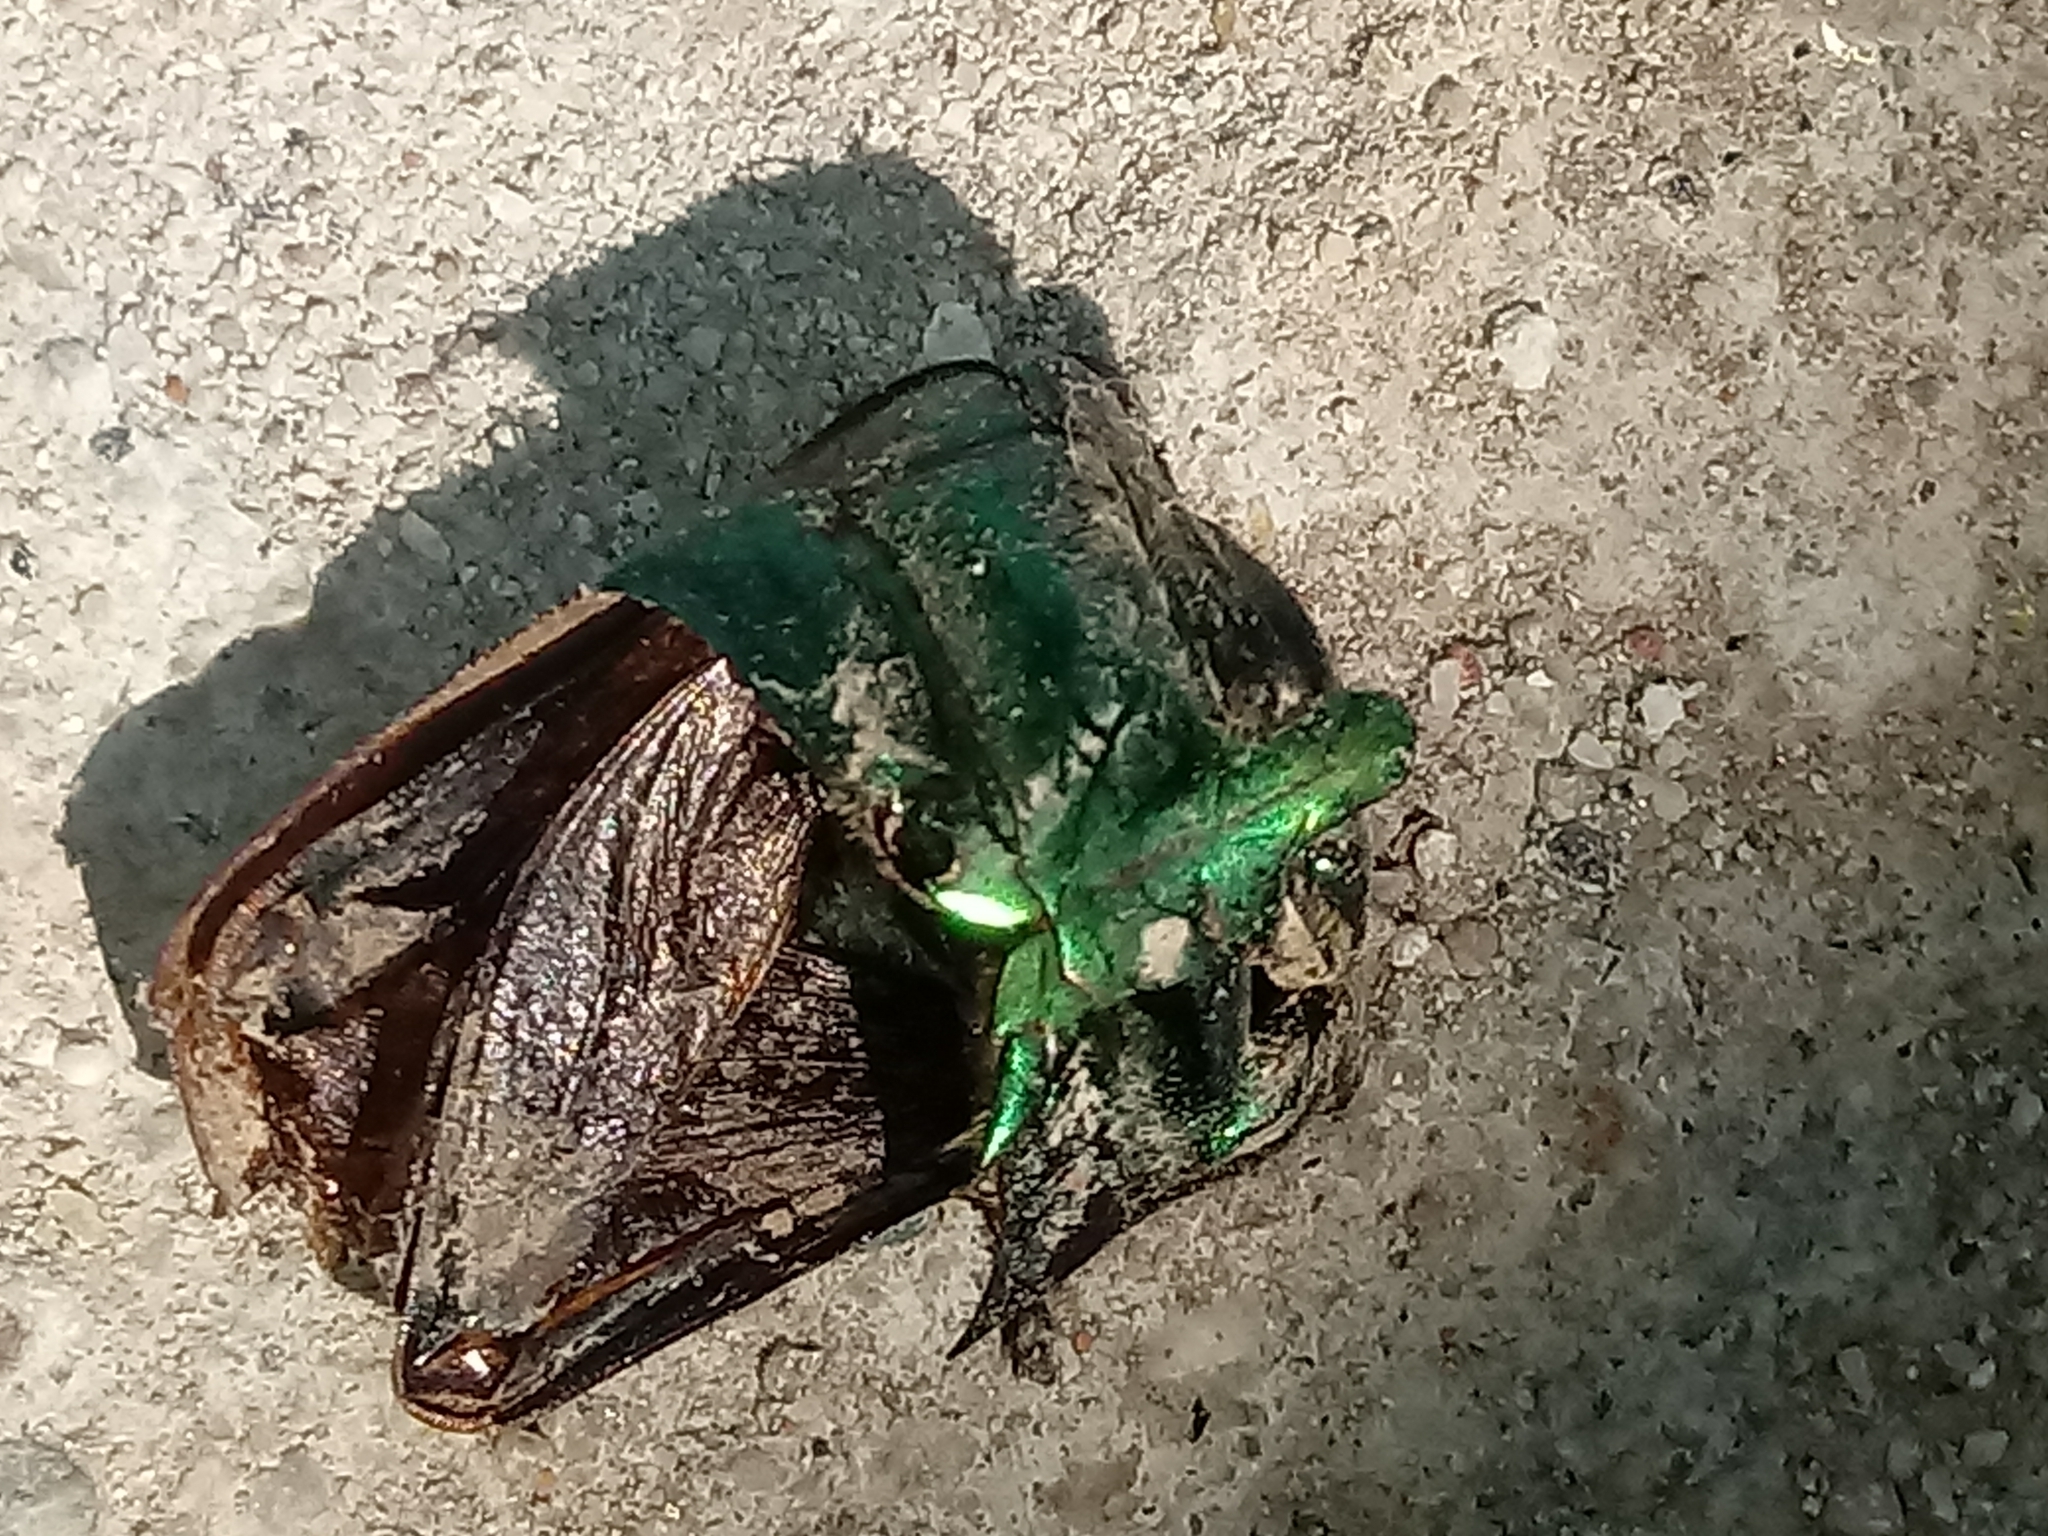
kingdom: Animalia
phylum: Arthropoda
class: Insecta
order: Coleoptera
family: Scarabaeidae
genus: Cotinis
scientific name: Cotinis mutabilis
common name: Figeater beetle
